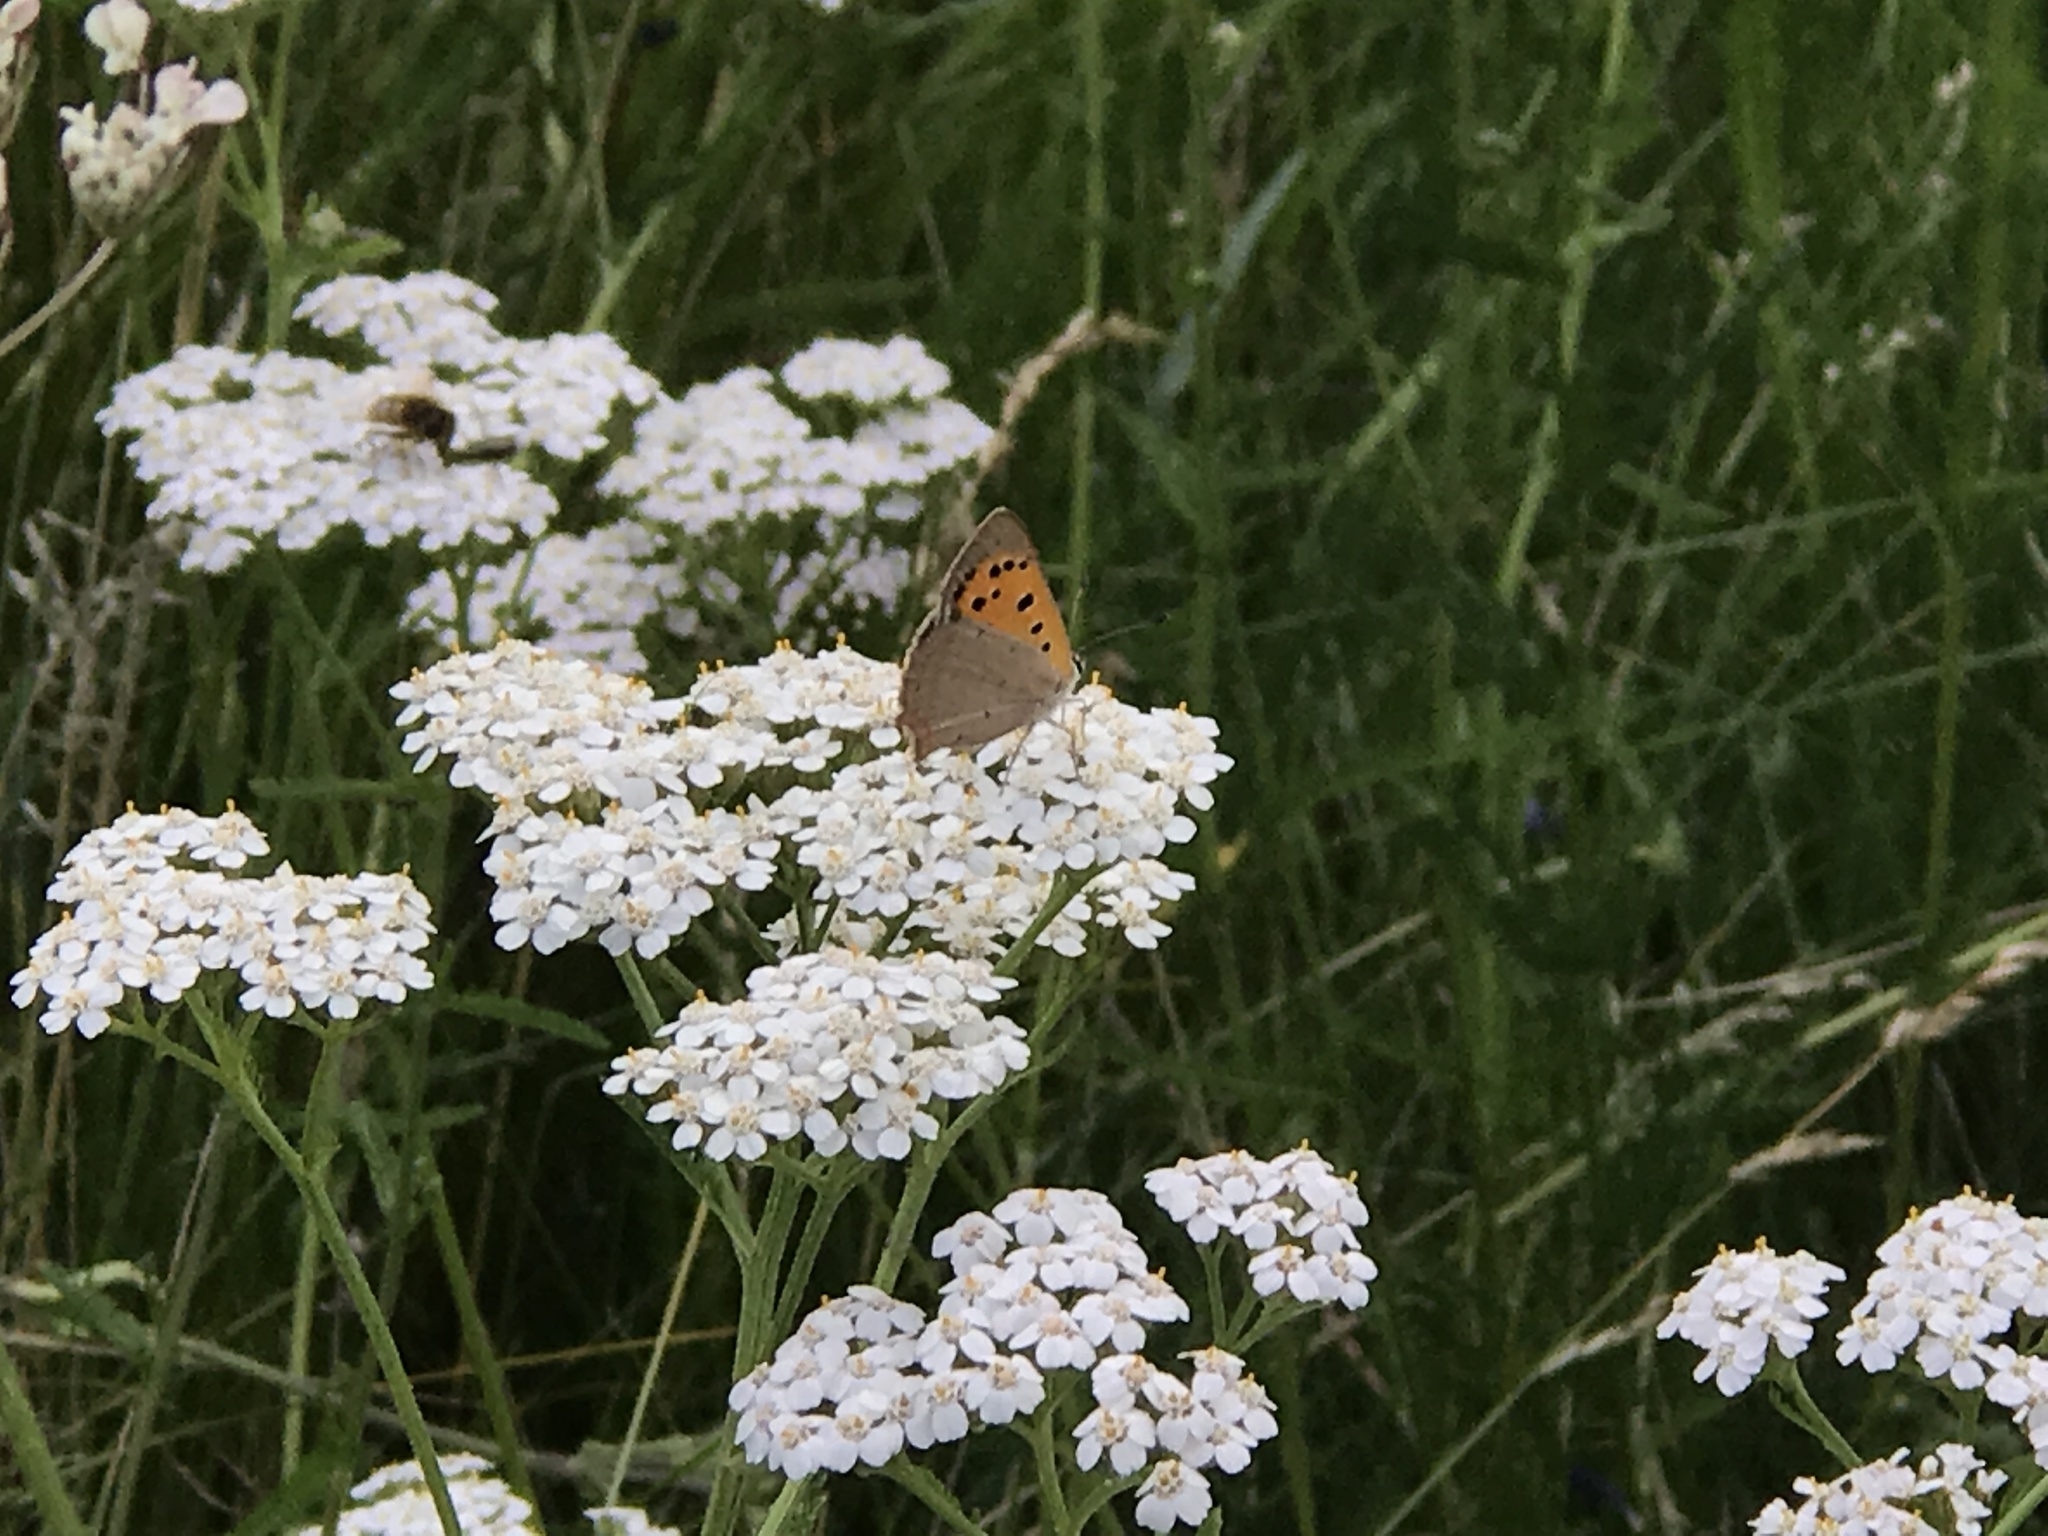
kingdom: Animalia
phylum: Arthropoda
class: Insecta
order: Lepidoptera
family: Lycaenidae
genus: Lycaena
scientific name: Lycaena phlaeas
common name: Small copper
